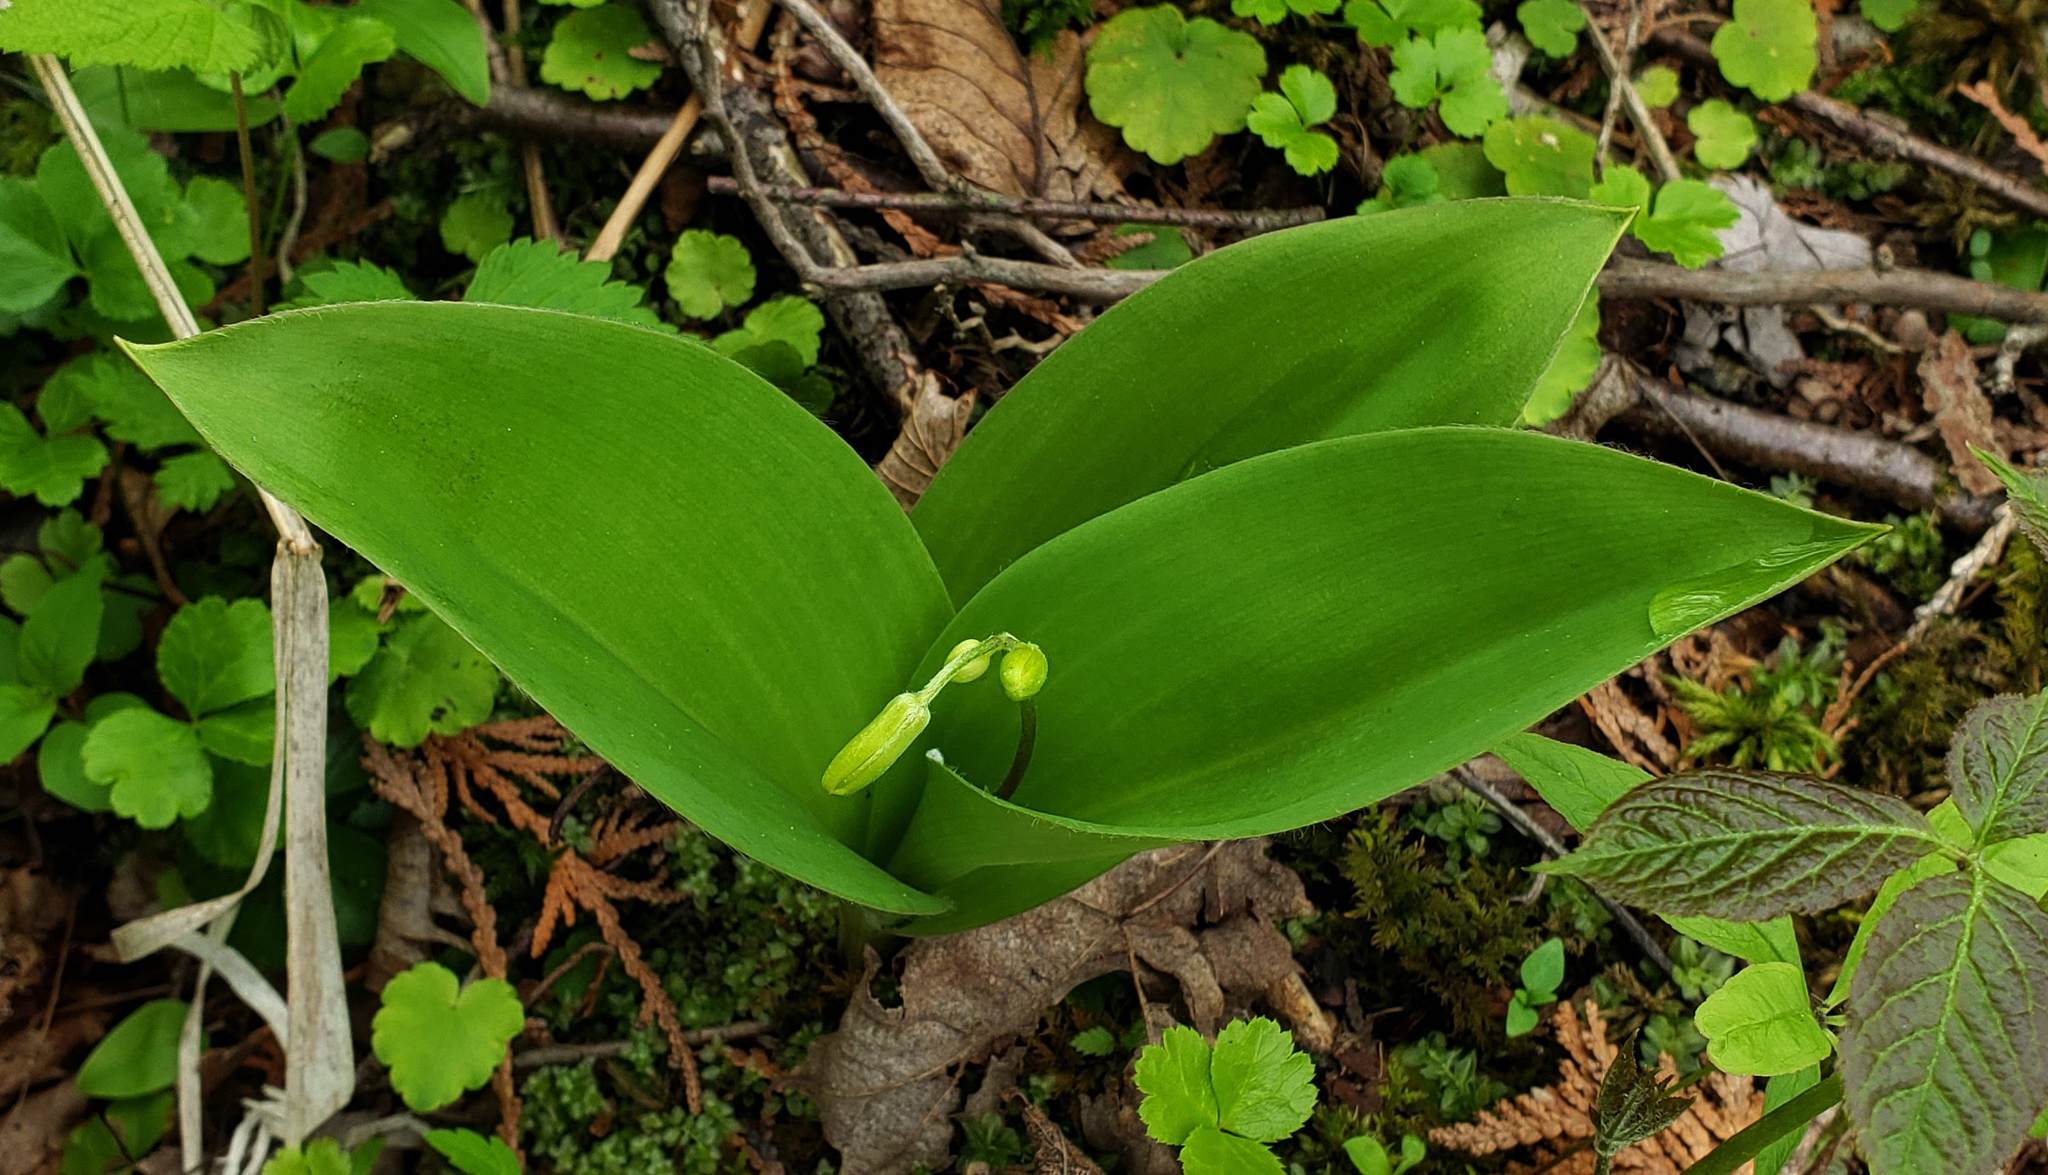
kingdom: Plantae
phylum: Tracheophyta
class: Liliopsida
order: Liliales
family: Liliaceae
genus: Clintonia
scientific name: Clintonia borealis
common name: Yellow clintonia
